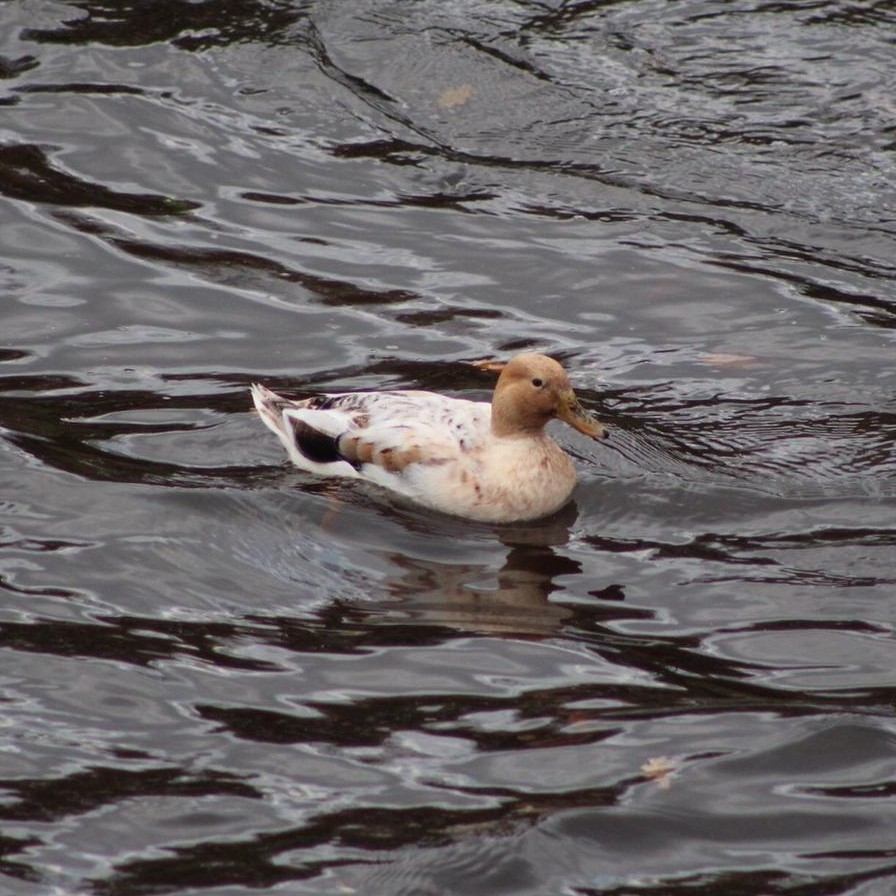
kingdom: Animalia
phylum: Chordata
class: Aves
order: Anseriformes
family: Anatidae
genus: Anas
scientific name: Anas platyrhynchos
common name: Mallard
